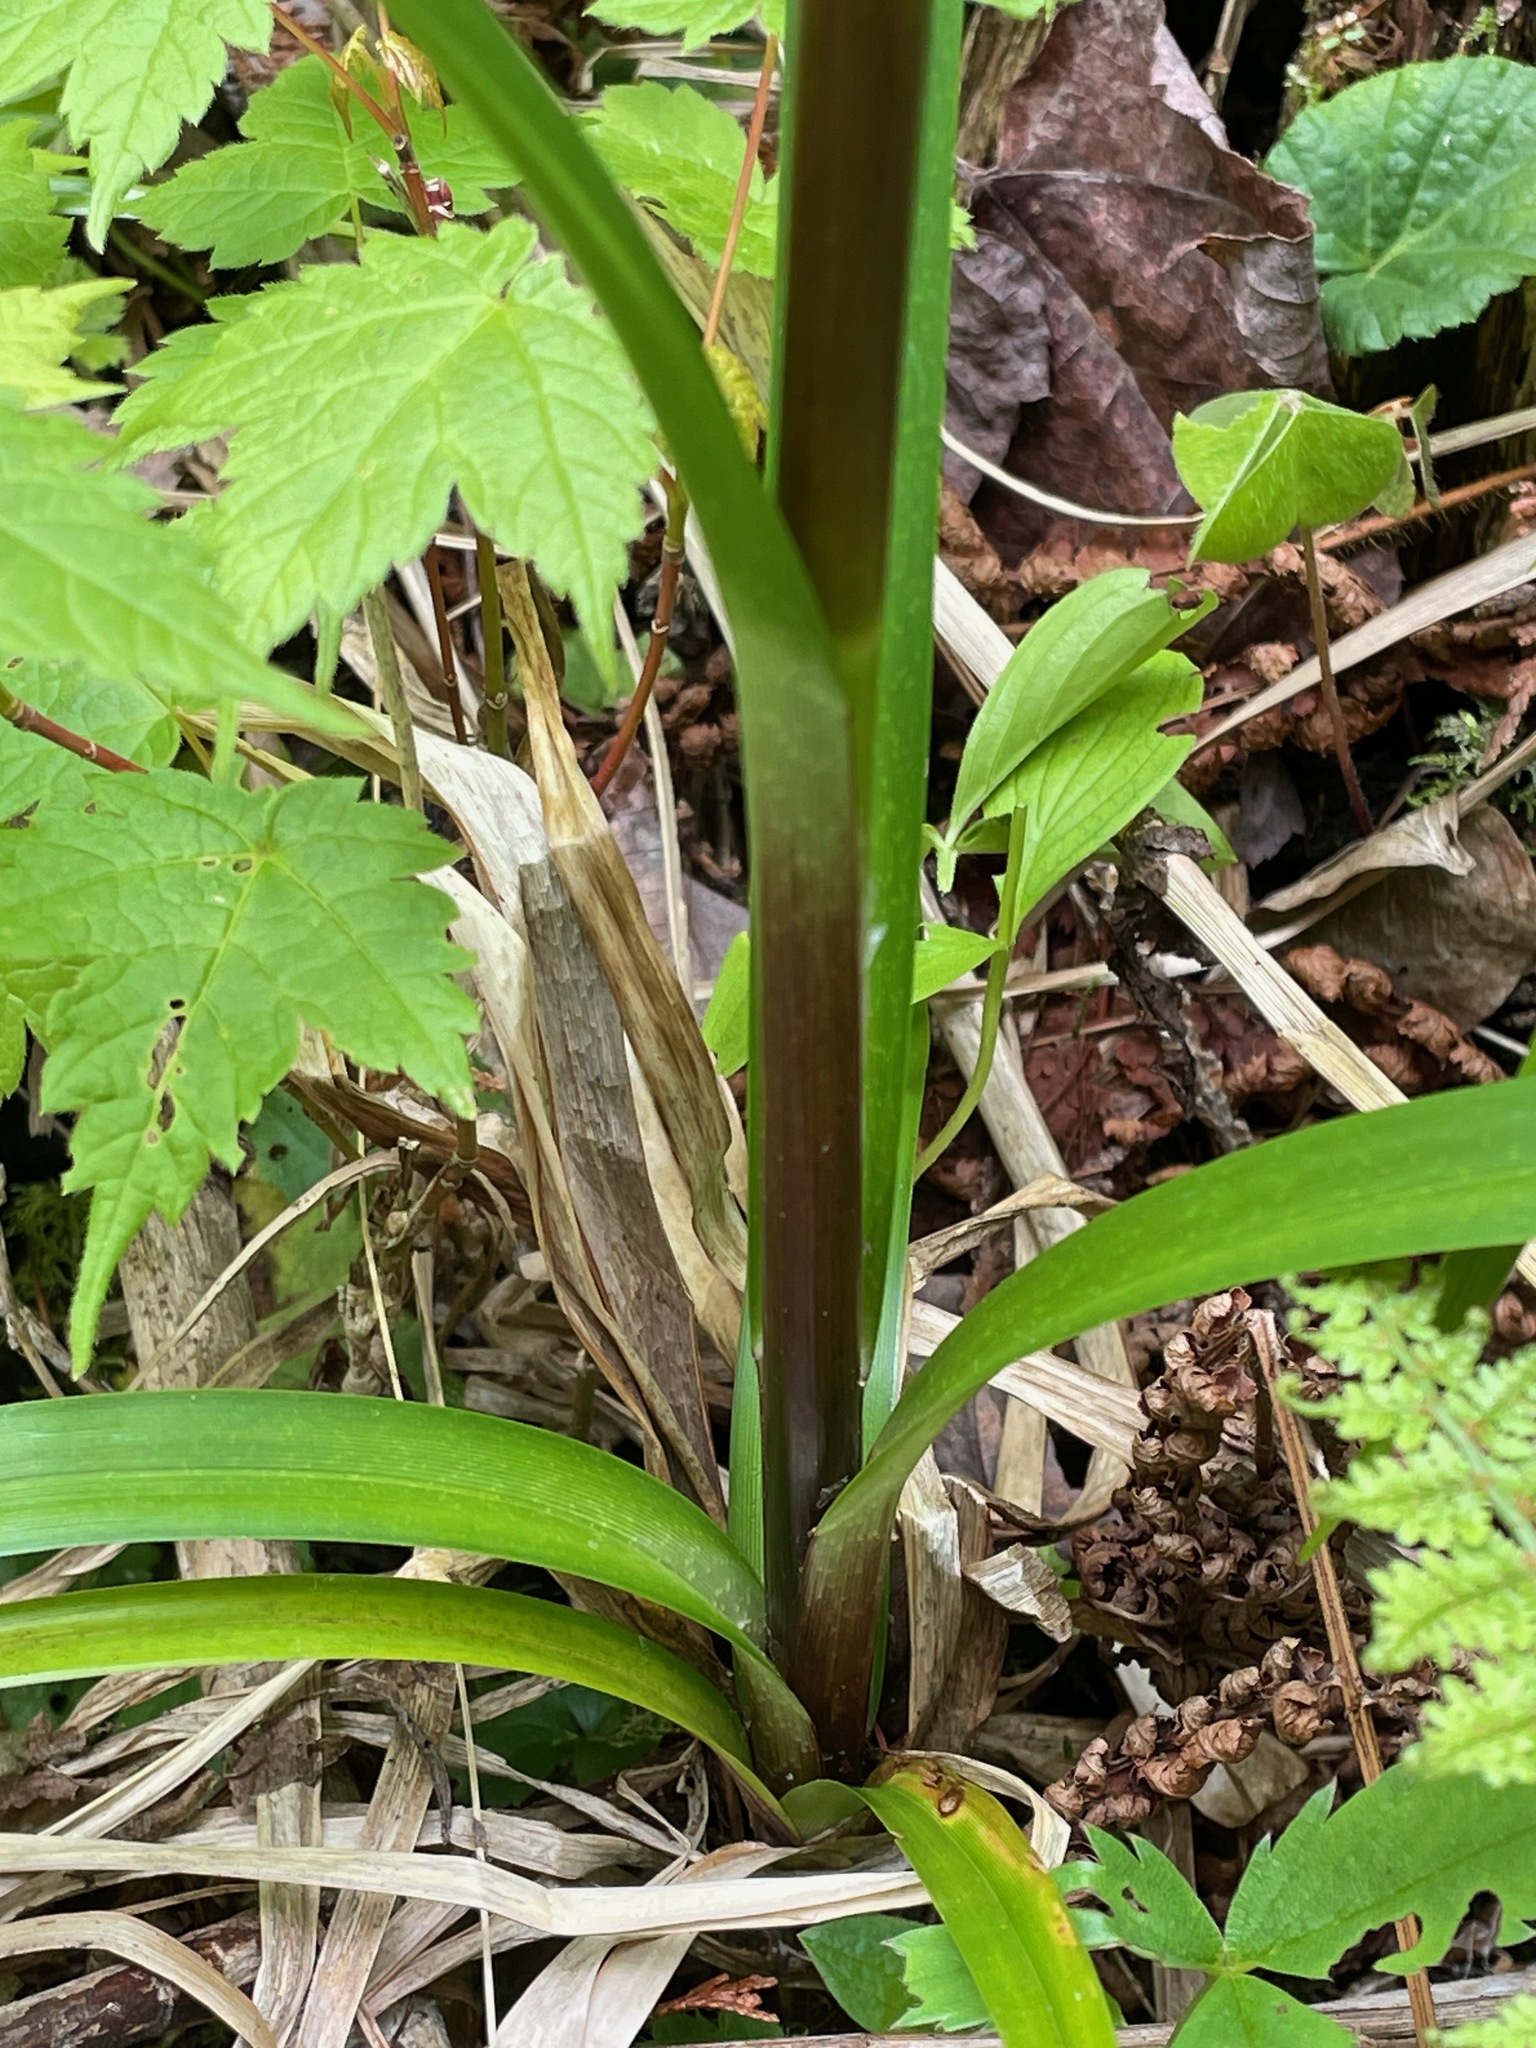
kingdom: Plantae
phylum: Tracheophyta
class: Liliopsida
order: Poales
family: Cyperaceae
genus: Scirpus
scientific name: Scirpus microcarpus
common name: Panicled bulrush
